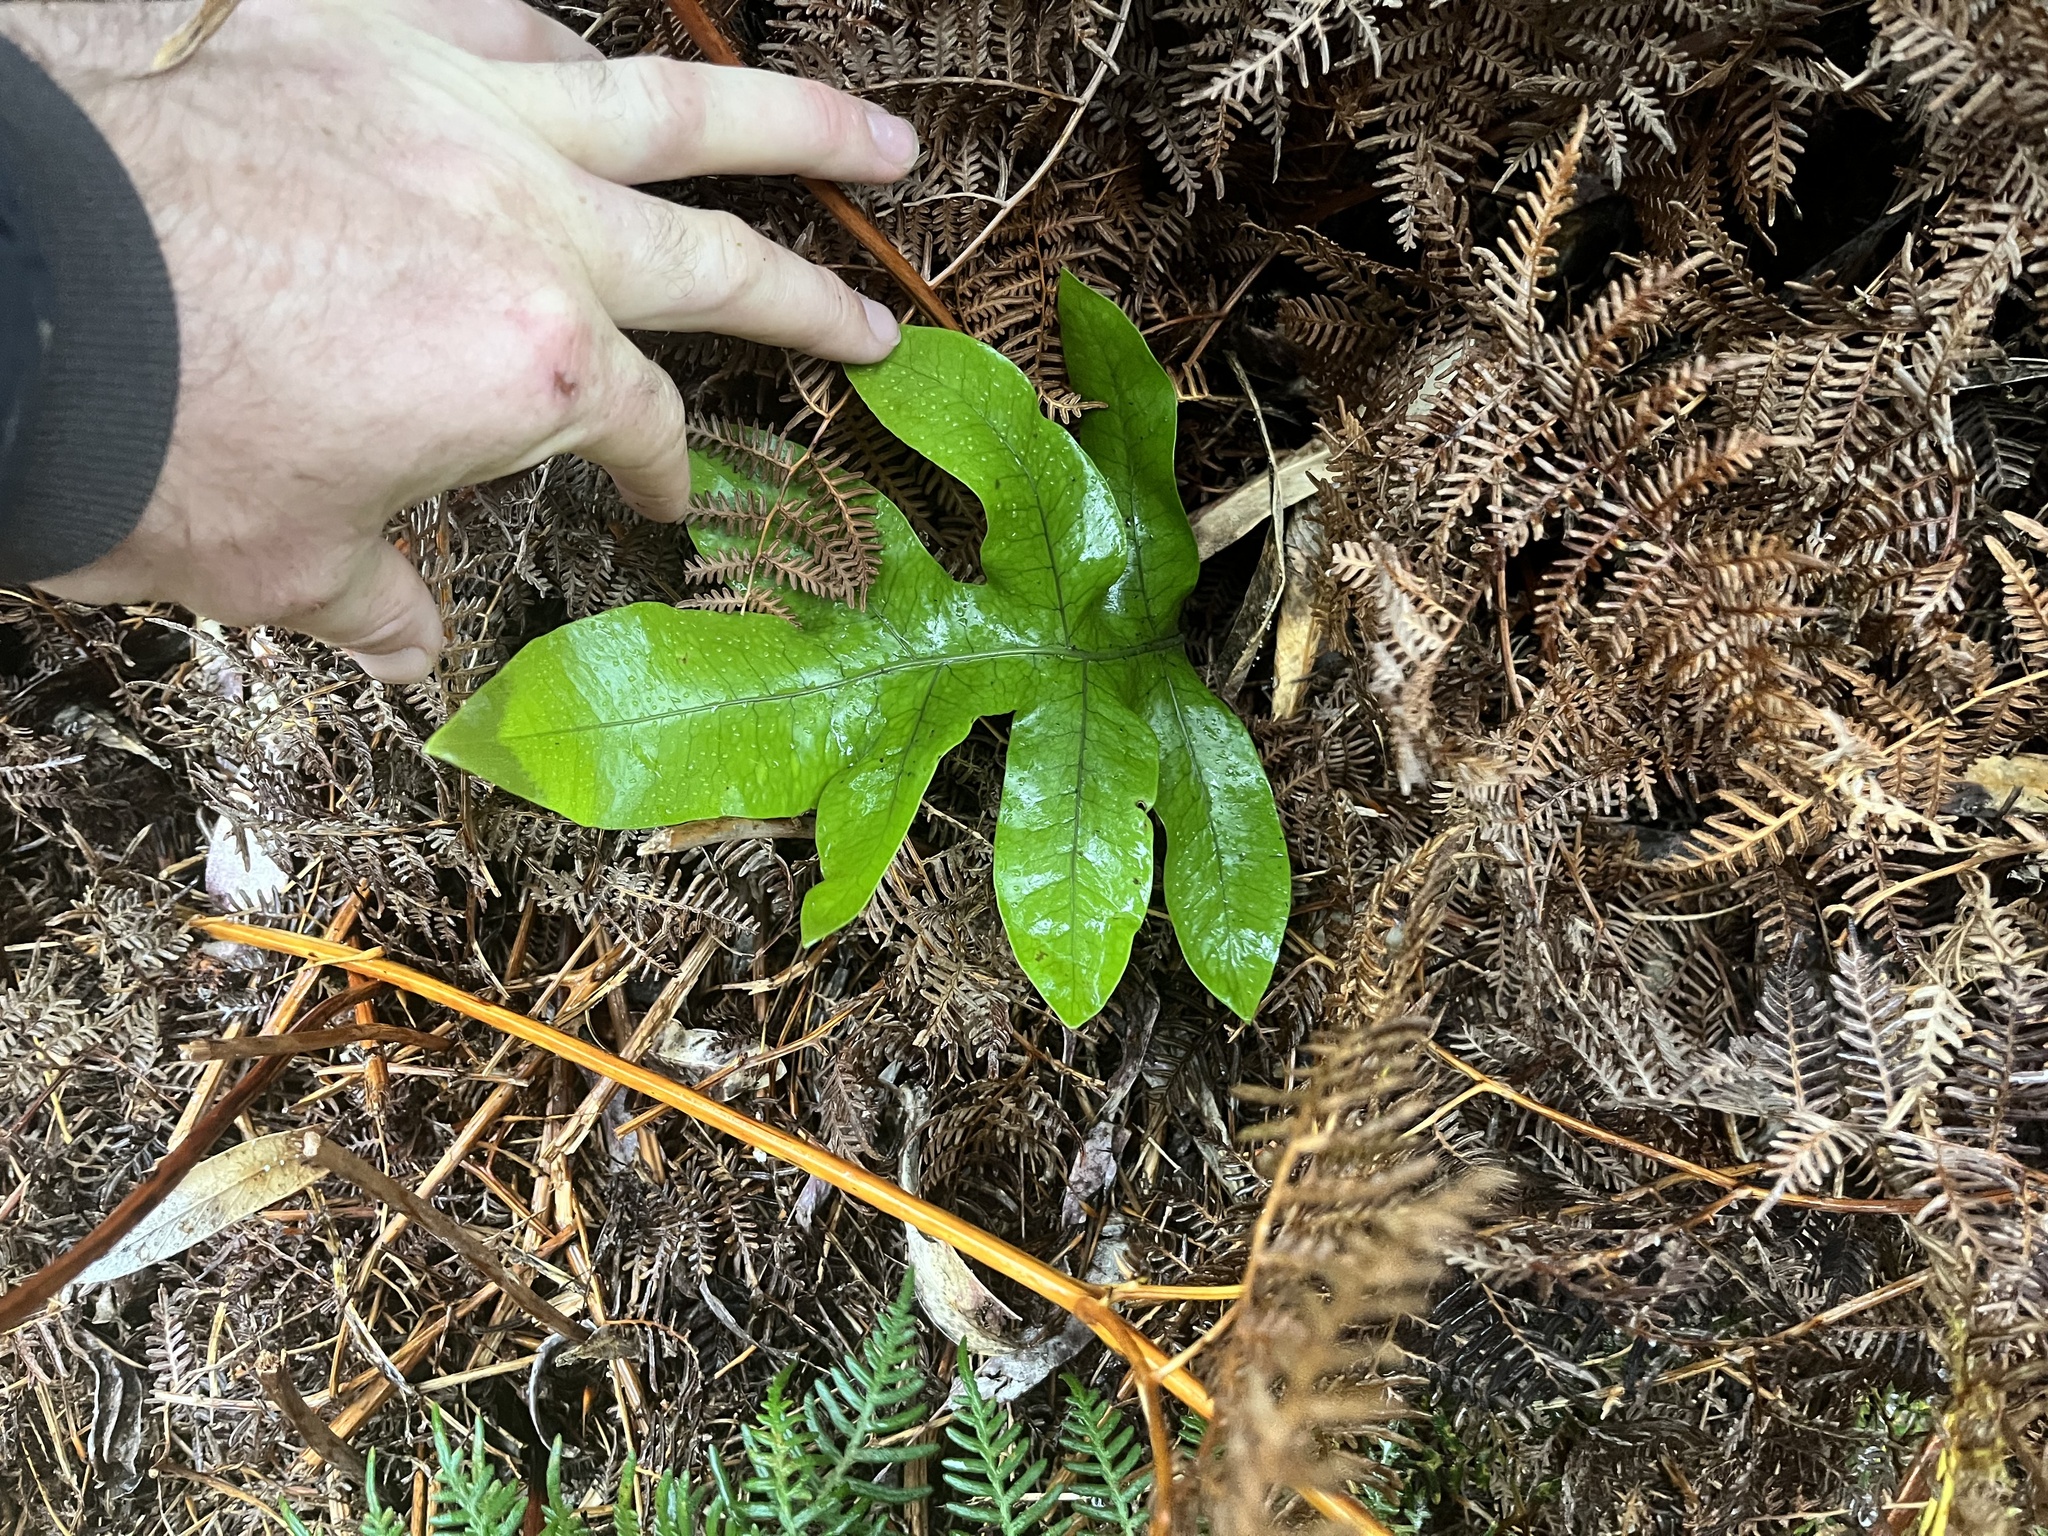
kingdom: Plantae
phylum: Tracheophyta
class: Polypodiopsida
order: Polypodiales
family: Polypodiaceae
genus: Lecanopteris
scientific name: Lecanopteris pustulata
